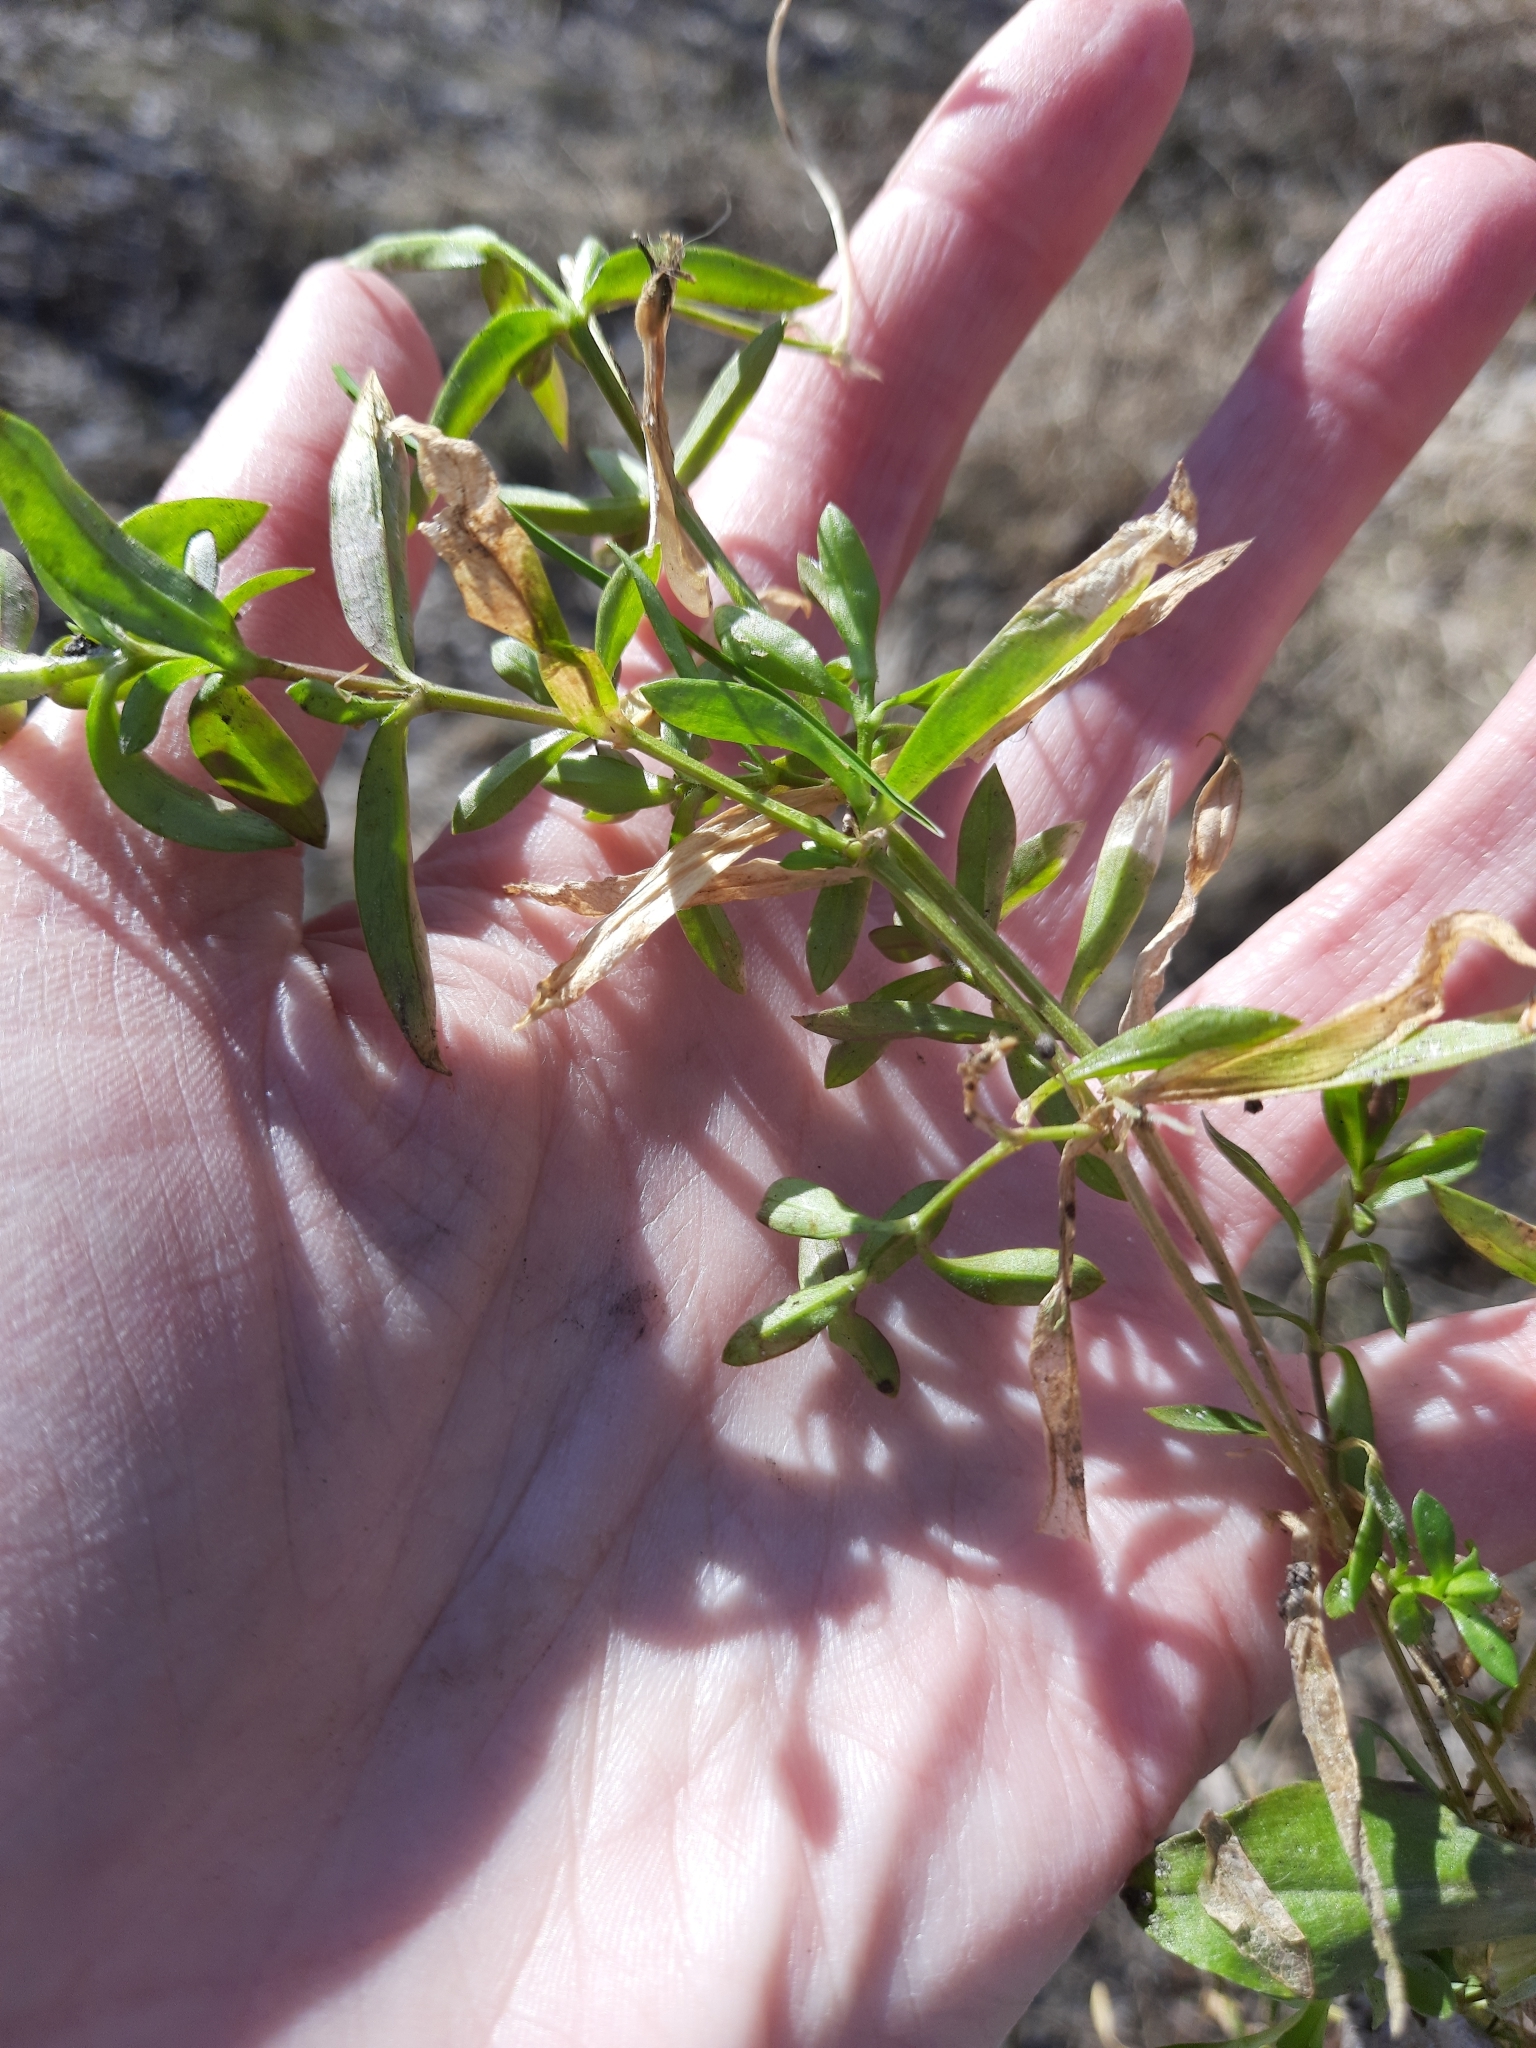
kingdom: Plantae
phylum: Tracheophyta
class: Magnoliopsida
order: Caryophyllales
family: Caryophyllaceae
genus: Stellaria
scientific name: Stellaria graminea
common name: Grass-like starwort
